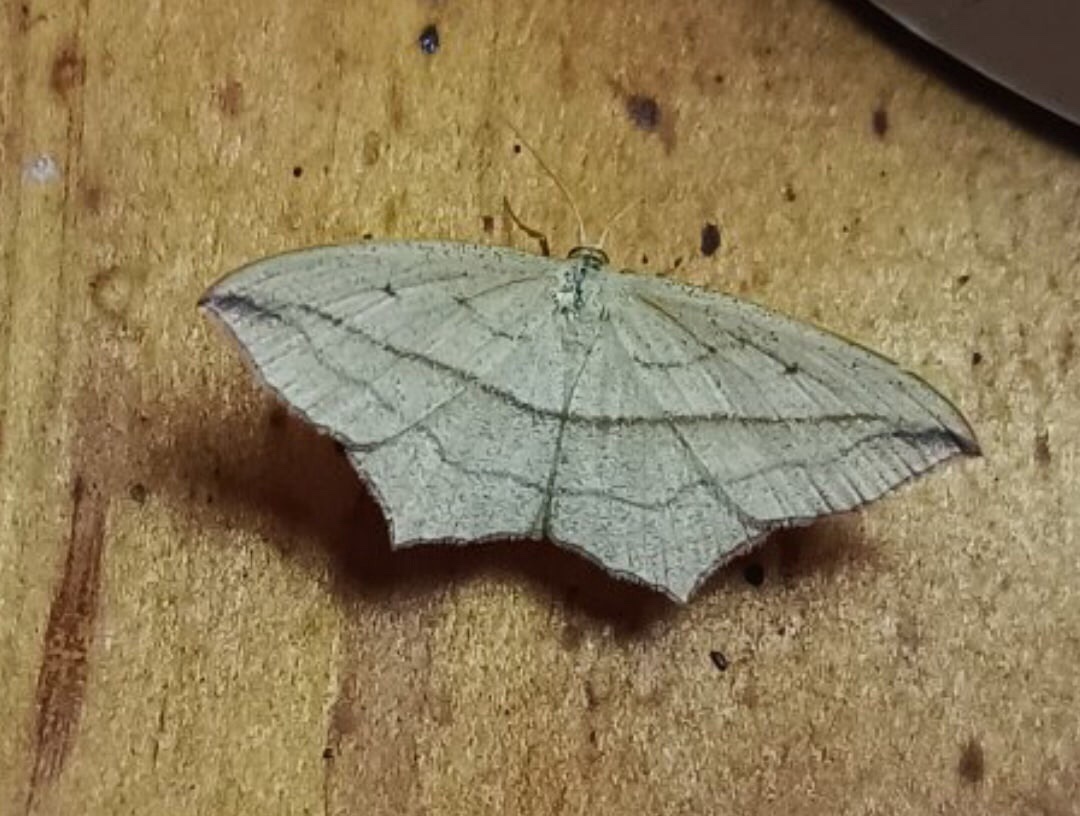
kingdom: Animalia
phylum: Arthropoda
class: Insecta
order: Lepidoptera
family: Geometridae
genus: Timandra
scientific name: Timandra comae
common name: Blood-vein
